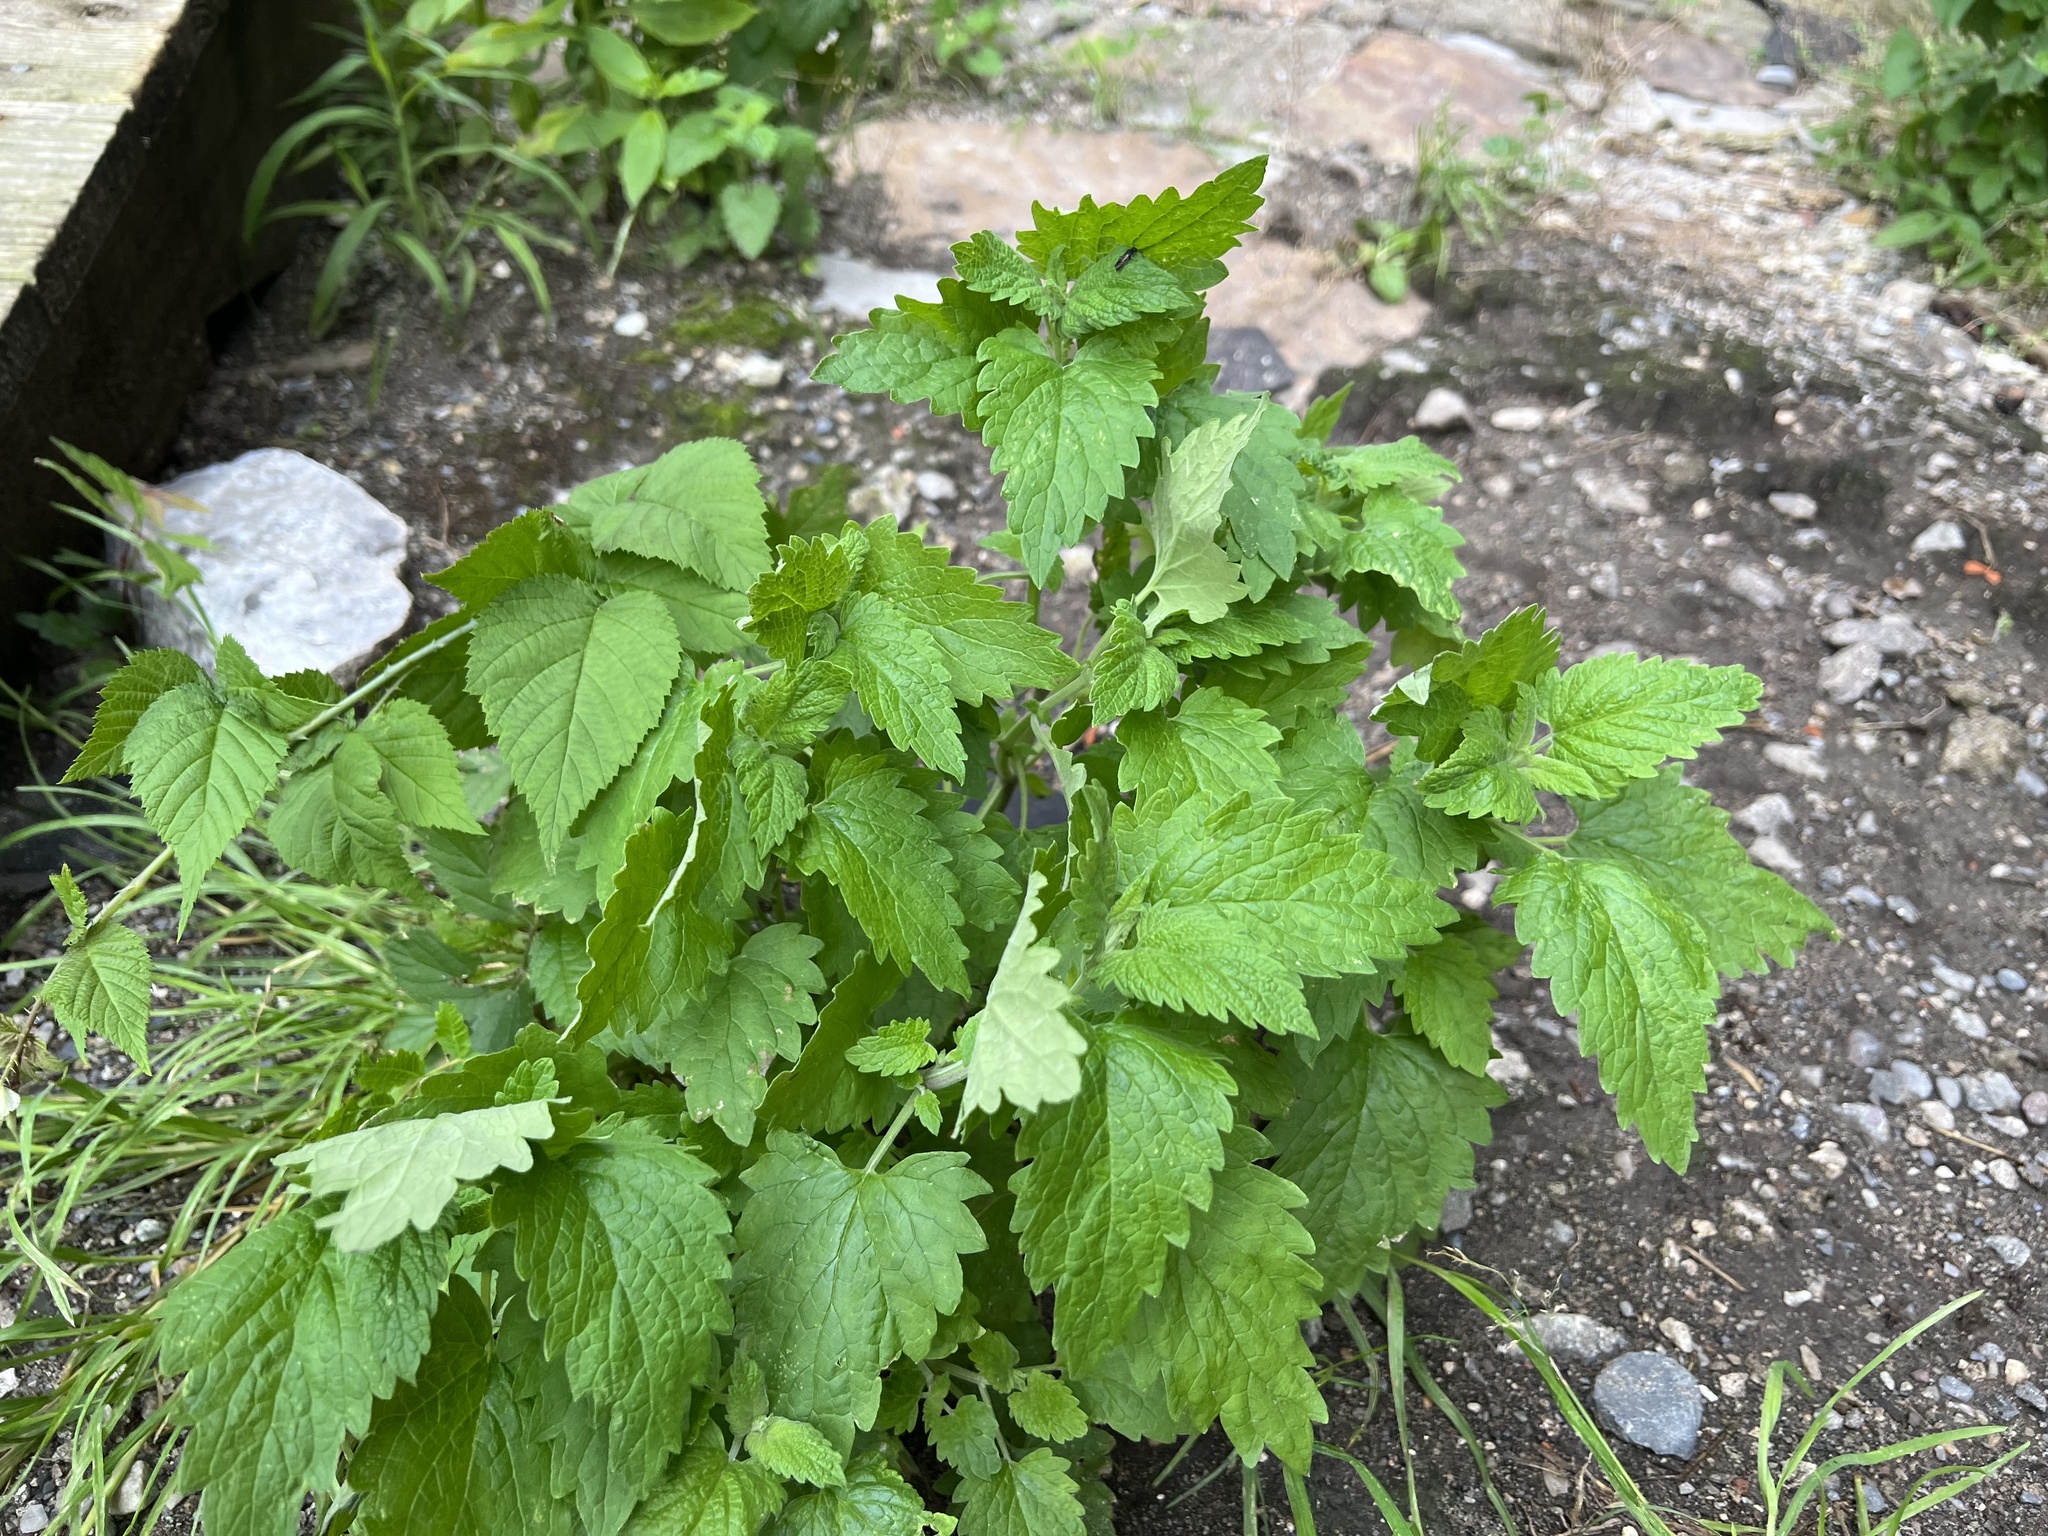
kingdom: Plantae
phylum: Tracheophyta
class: Magnoliopsida
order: Lamiales
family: Lamiaceae
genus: Nepeta
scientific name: Nepeta cataria
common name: Catnip
